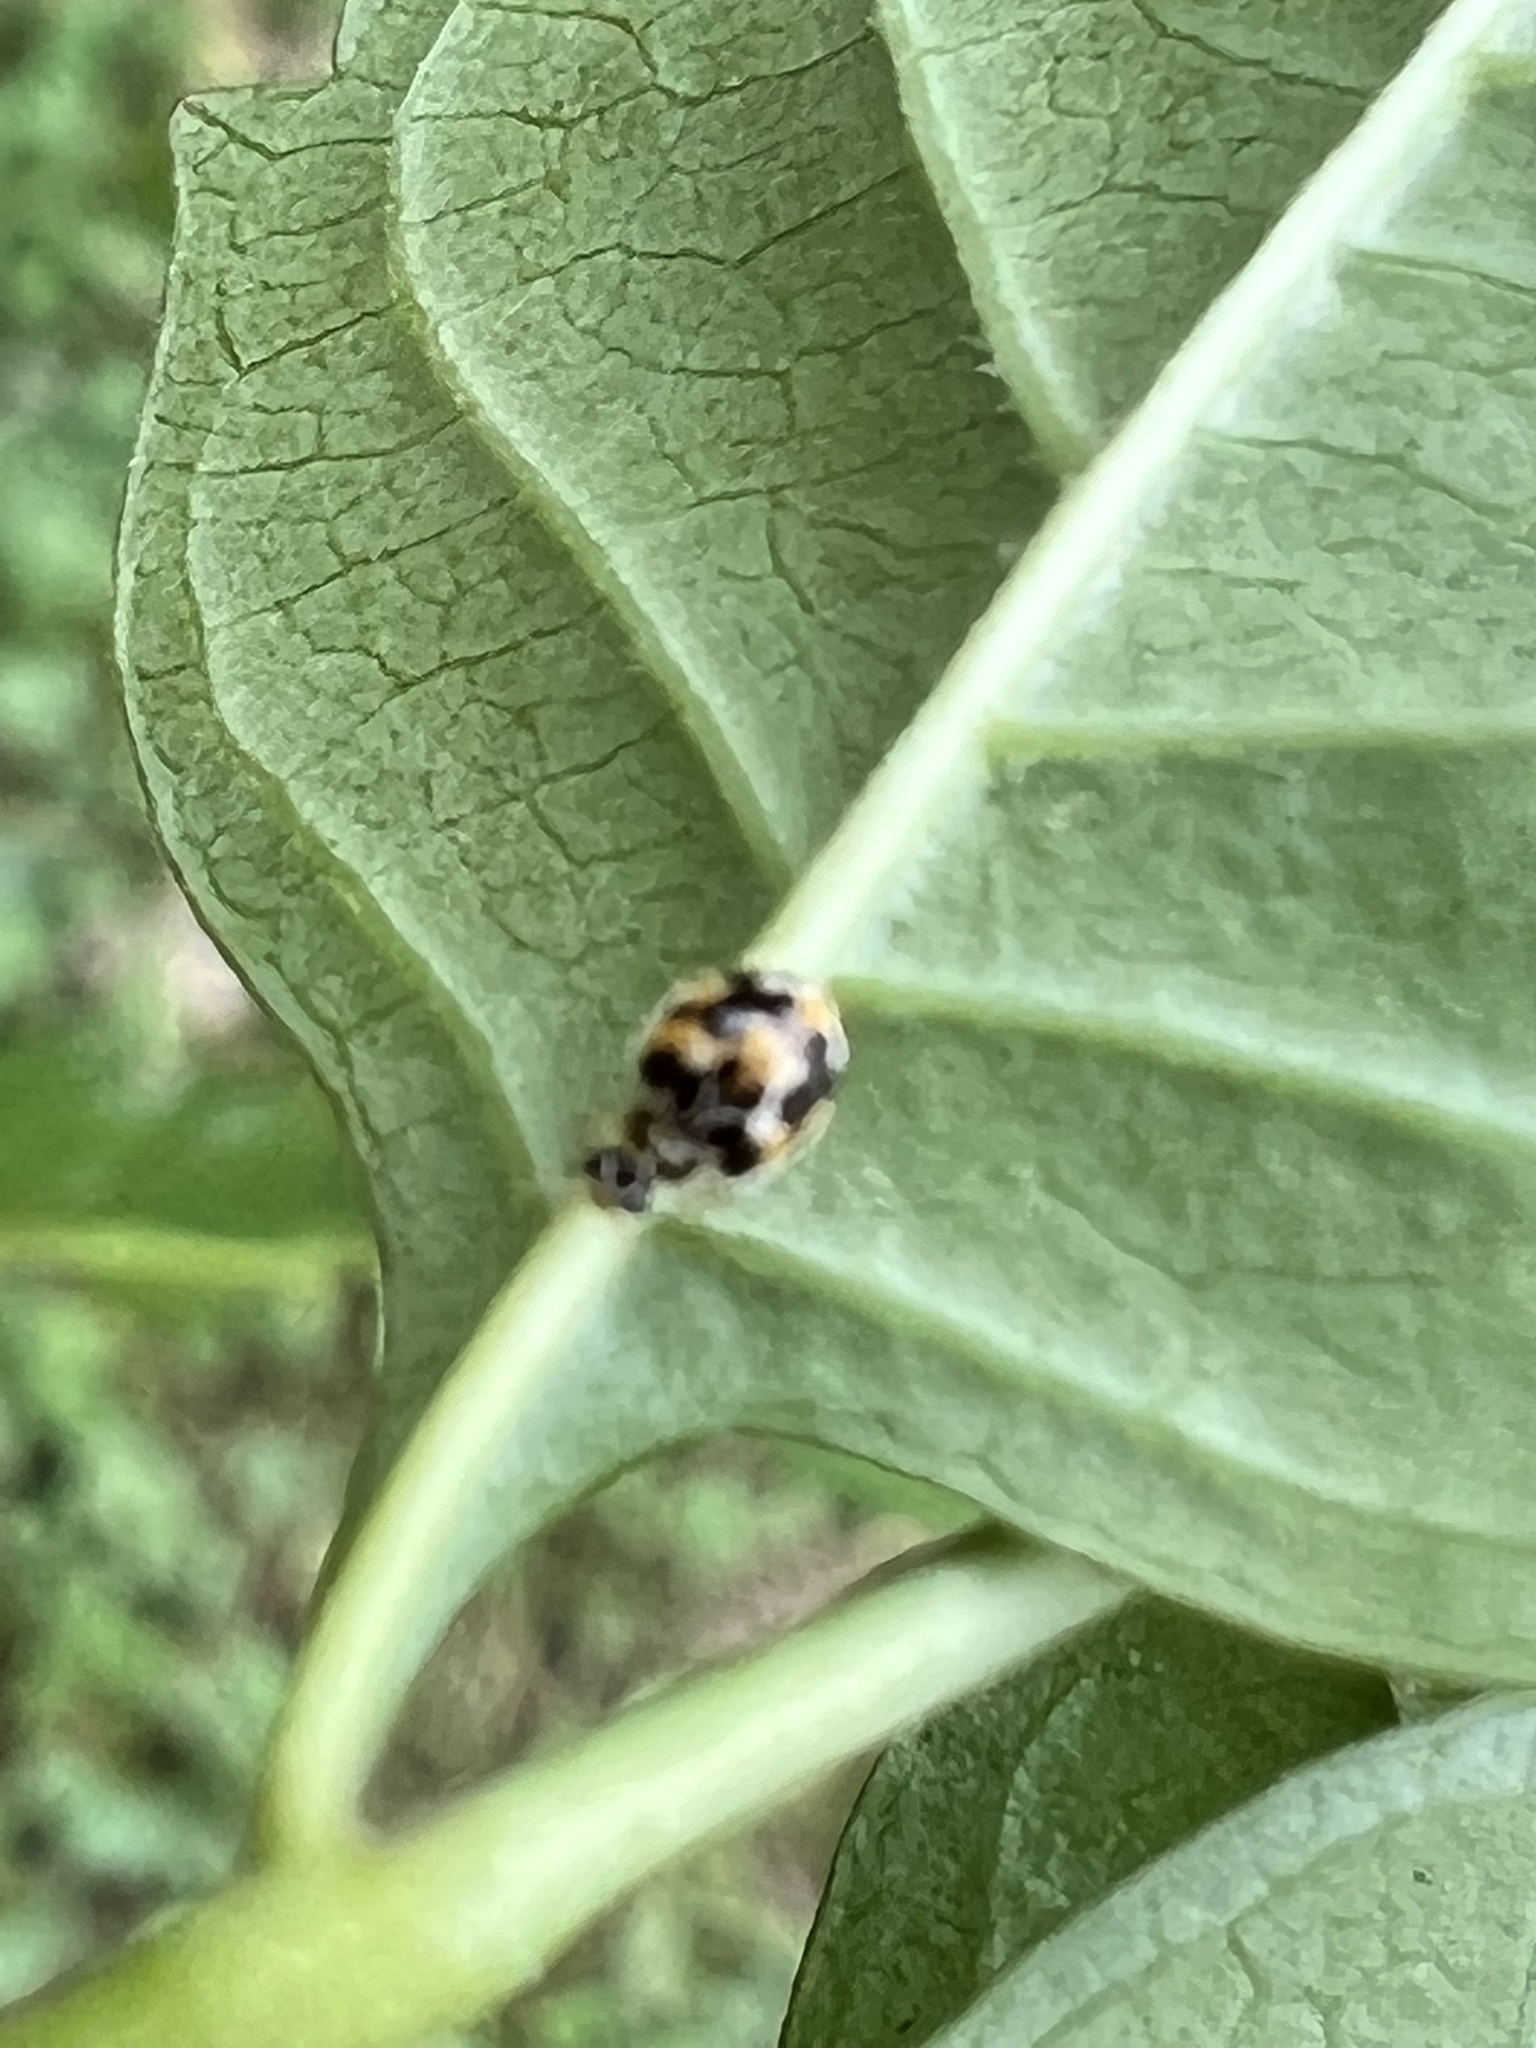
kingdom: Animalia
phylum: Arthropoda
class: Insecta
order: Coleoptera
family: Coccinellidae
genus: Psyllobora
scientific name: Psyllobora vigintimaculata
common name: Ladybird beetle
